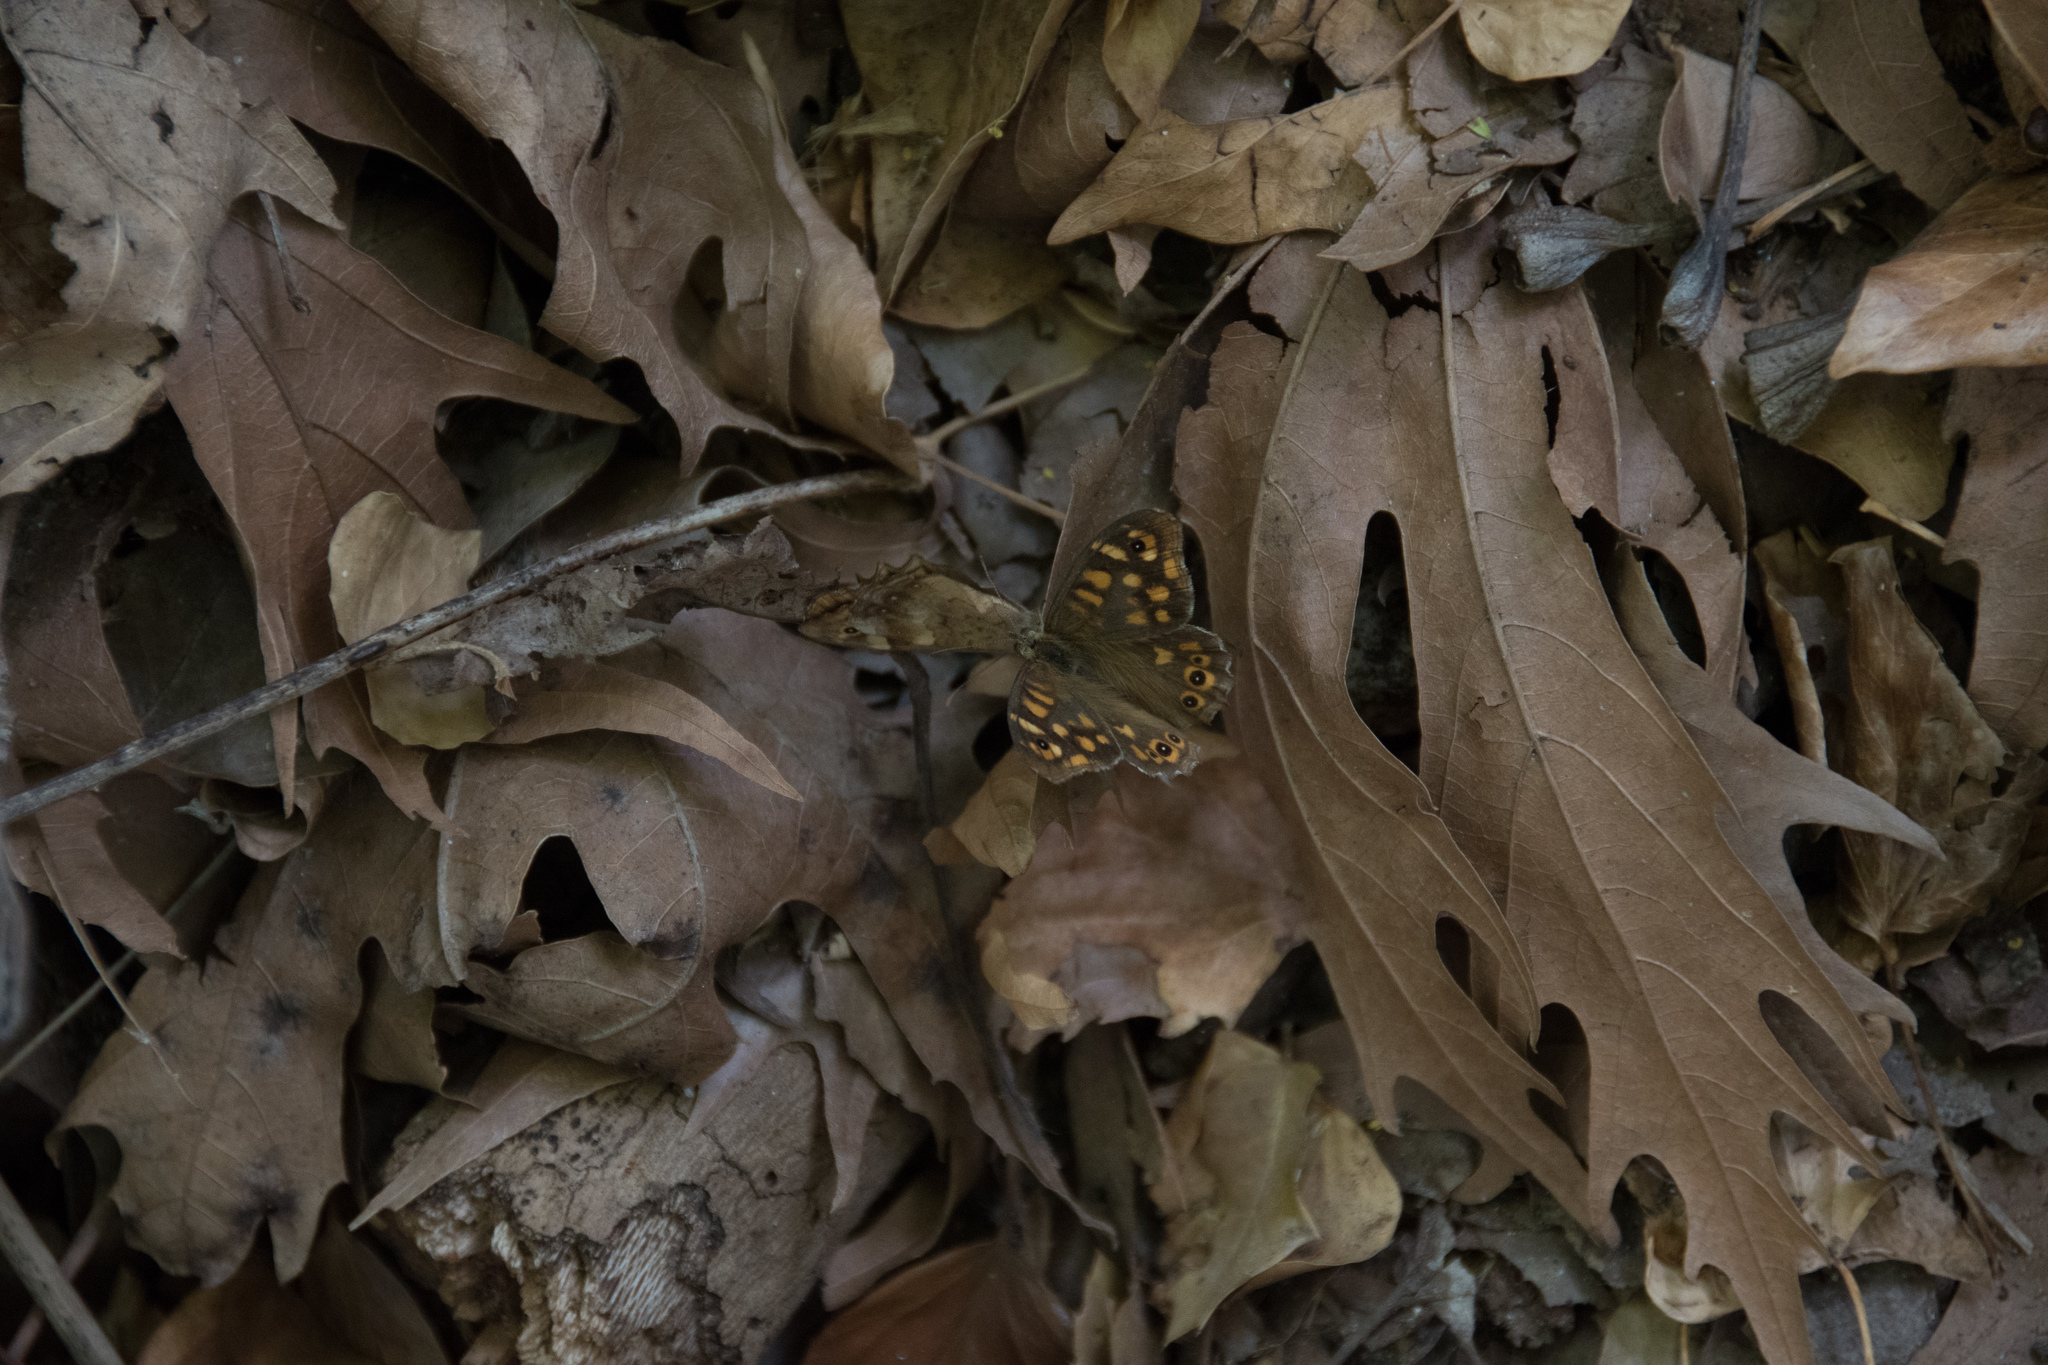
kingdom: Animalia
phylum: Arthropoda
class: Insecta
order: Lepidoptera
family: Nymphalidae
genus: Pararge
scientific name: Pararge aegeria
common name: Speckled wood
